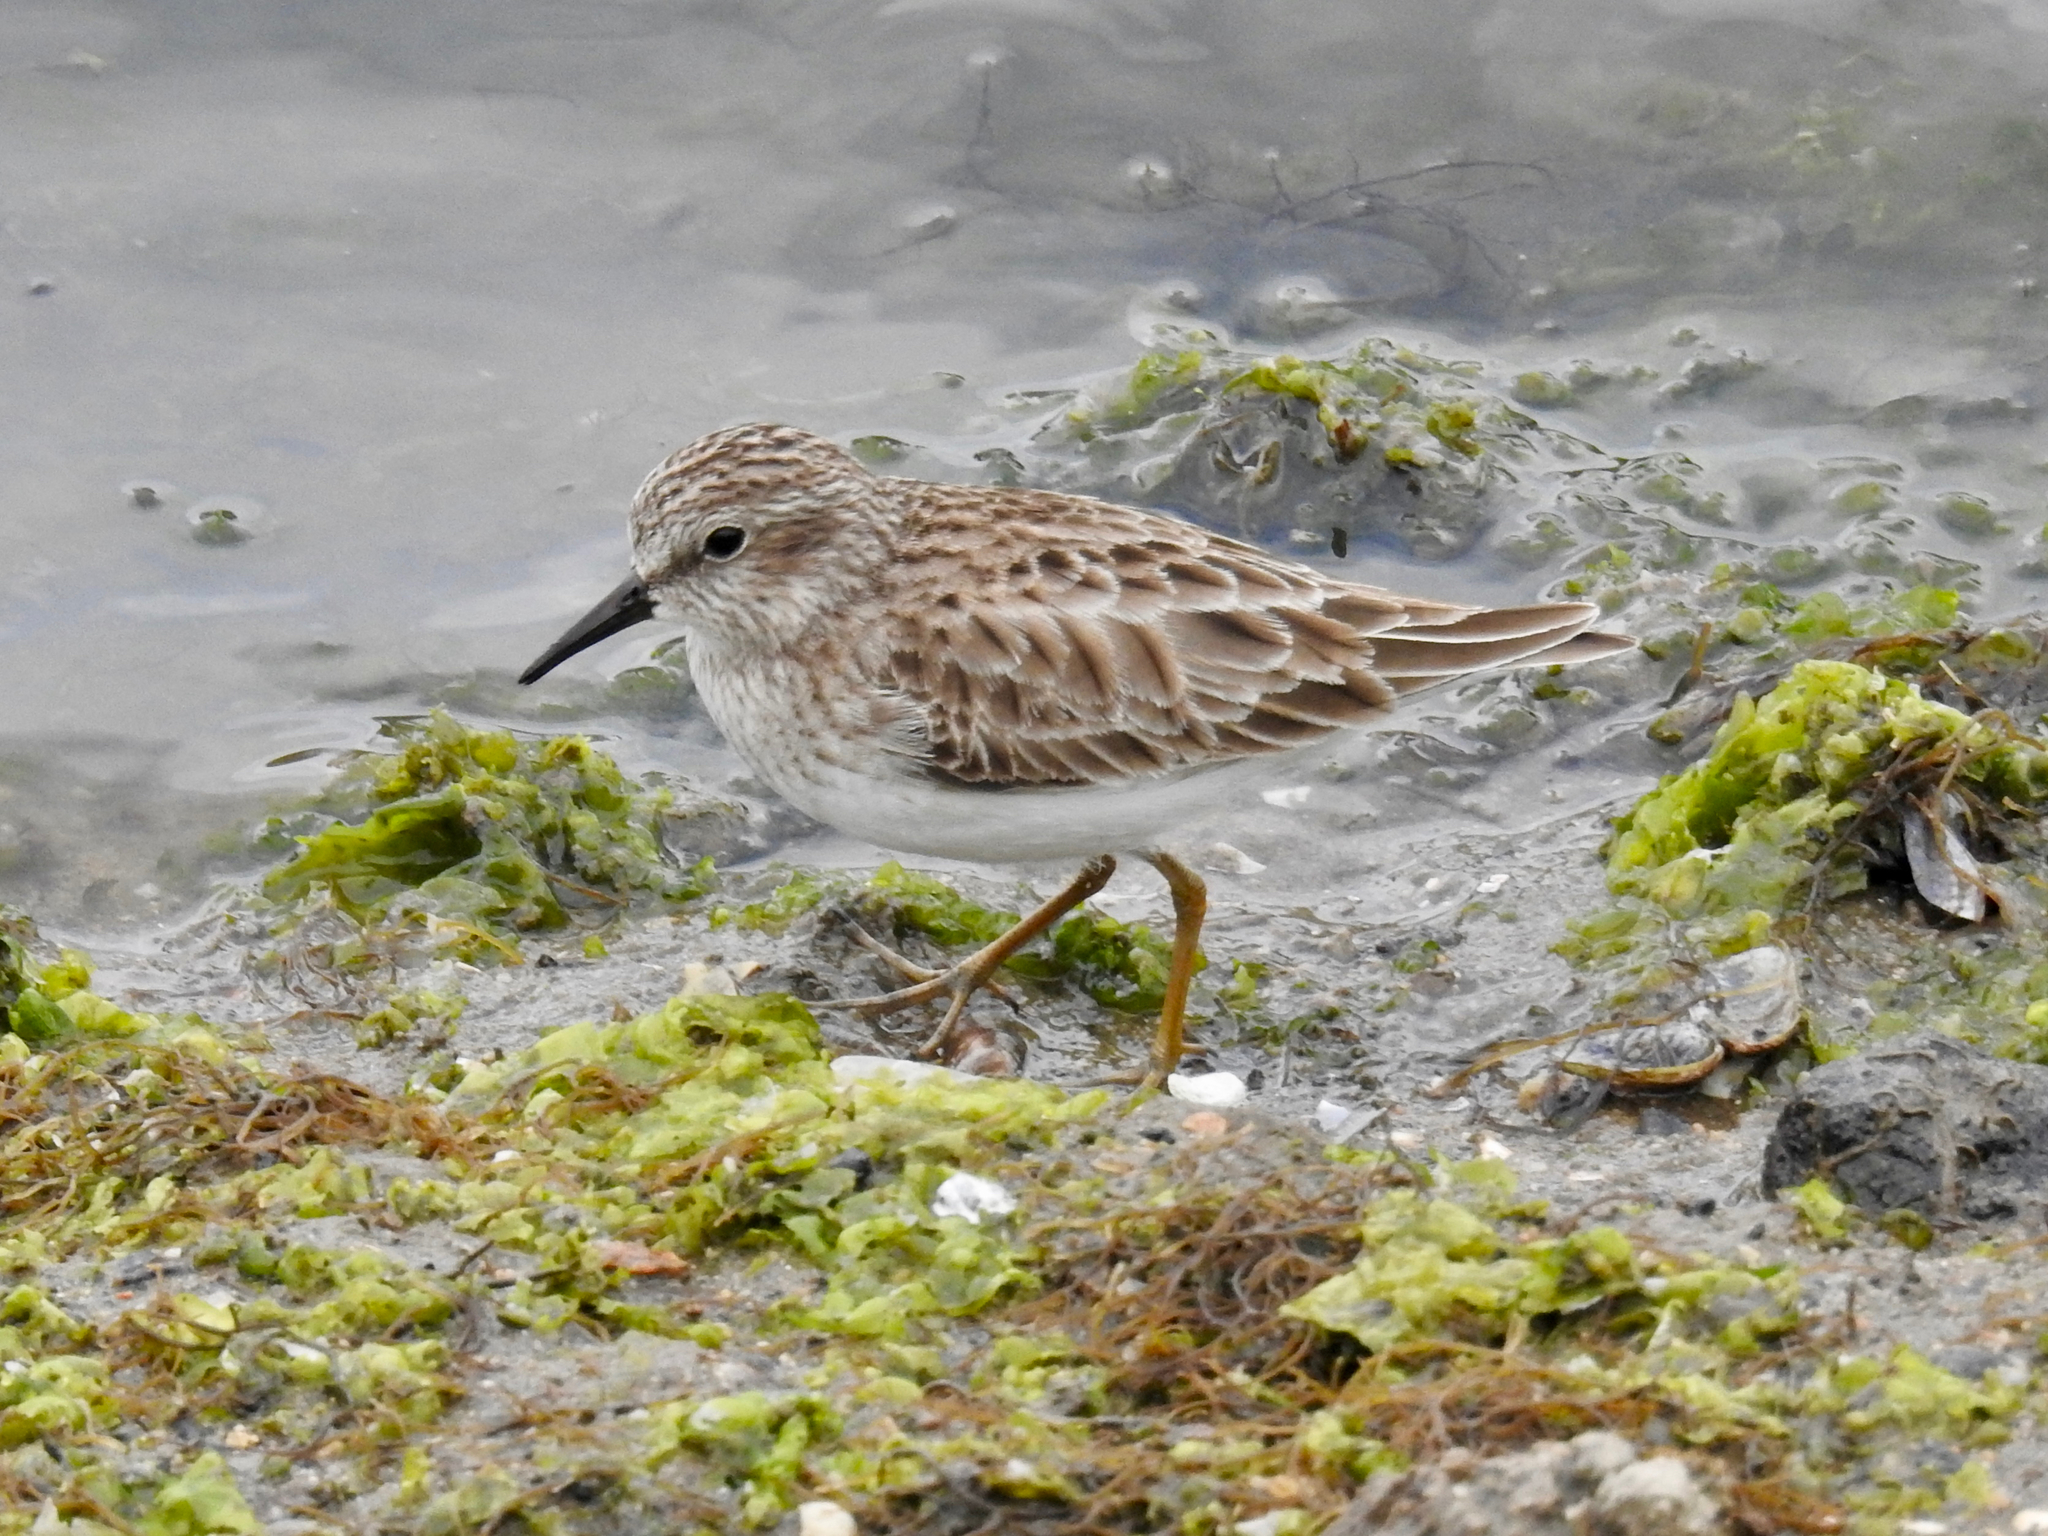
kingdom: Animalia
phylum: Chordata
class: Aves
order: Charadriiformes
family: Scolopacidae
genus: Calidris
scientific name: Calidris minutilla
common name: Least sandpiper
